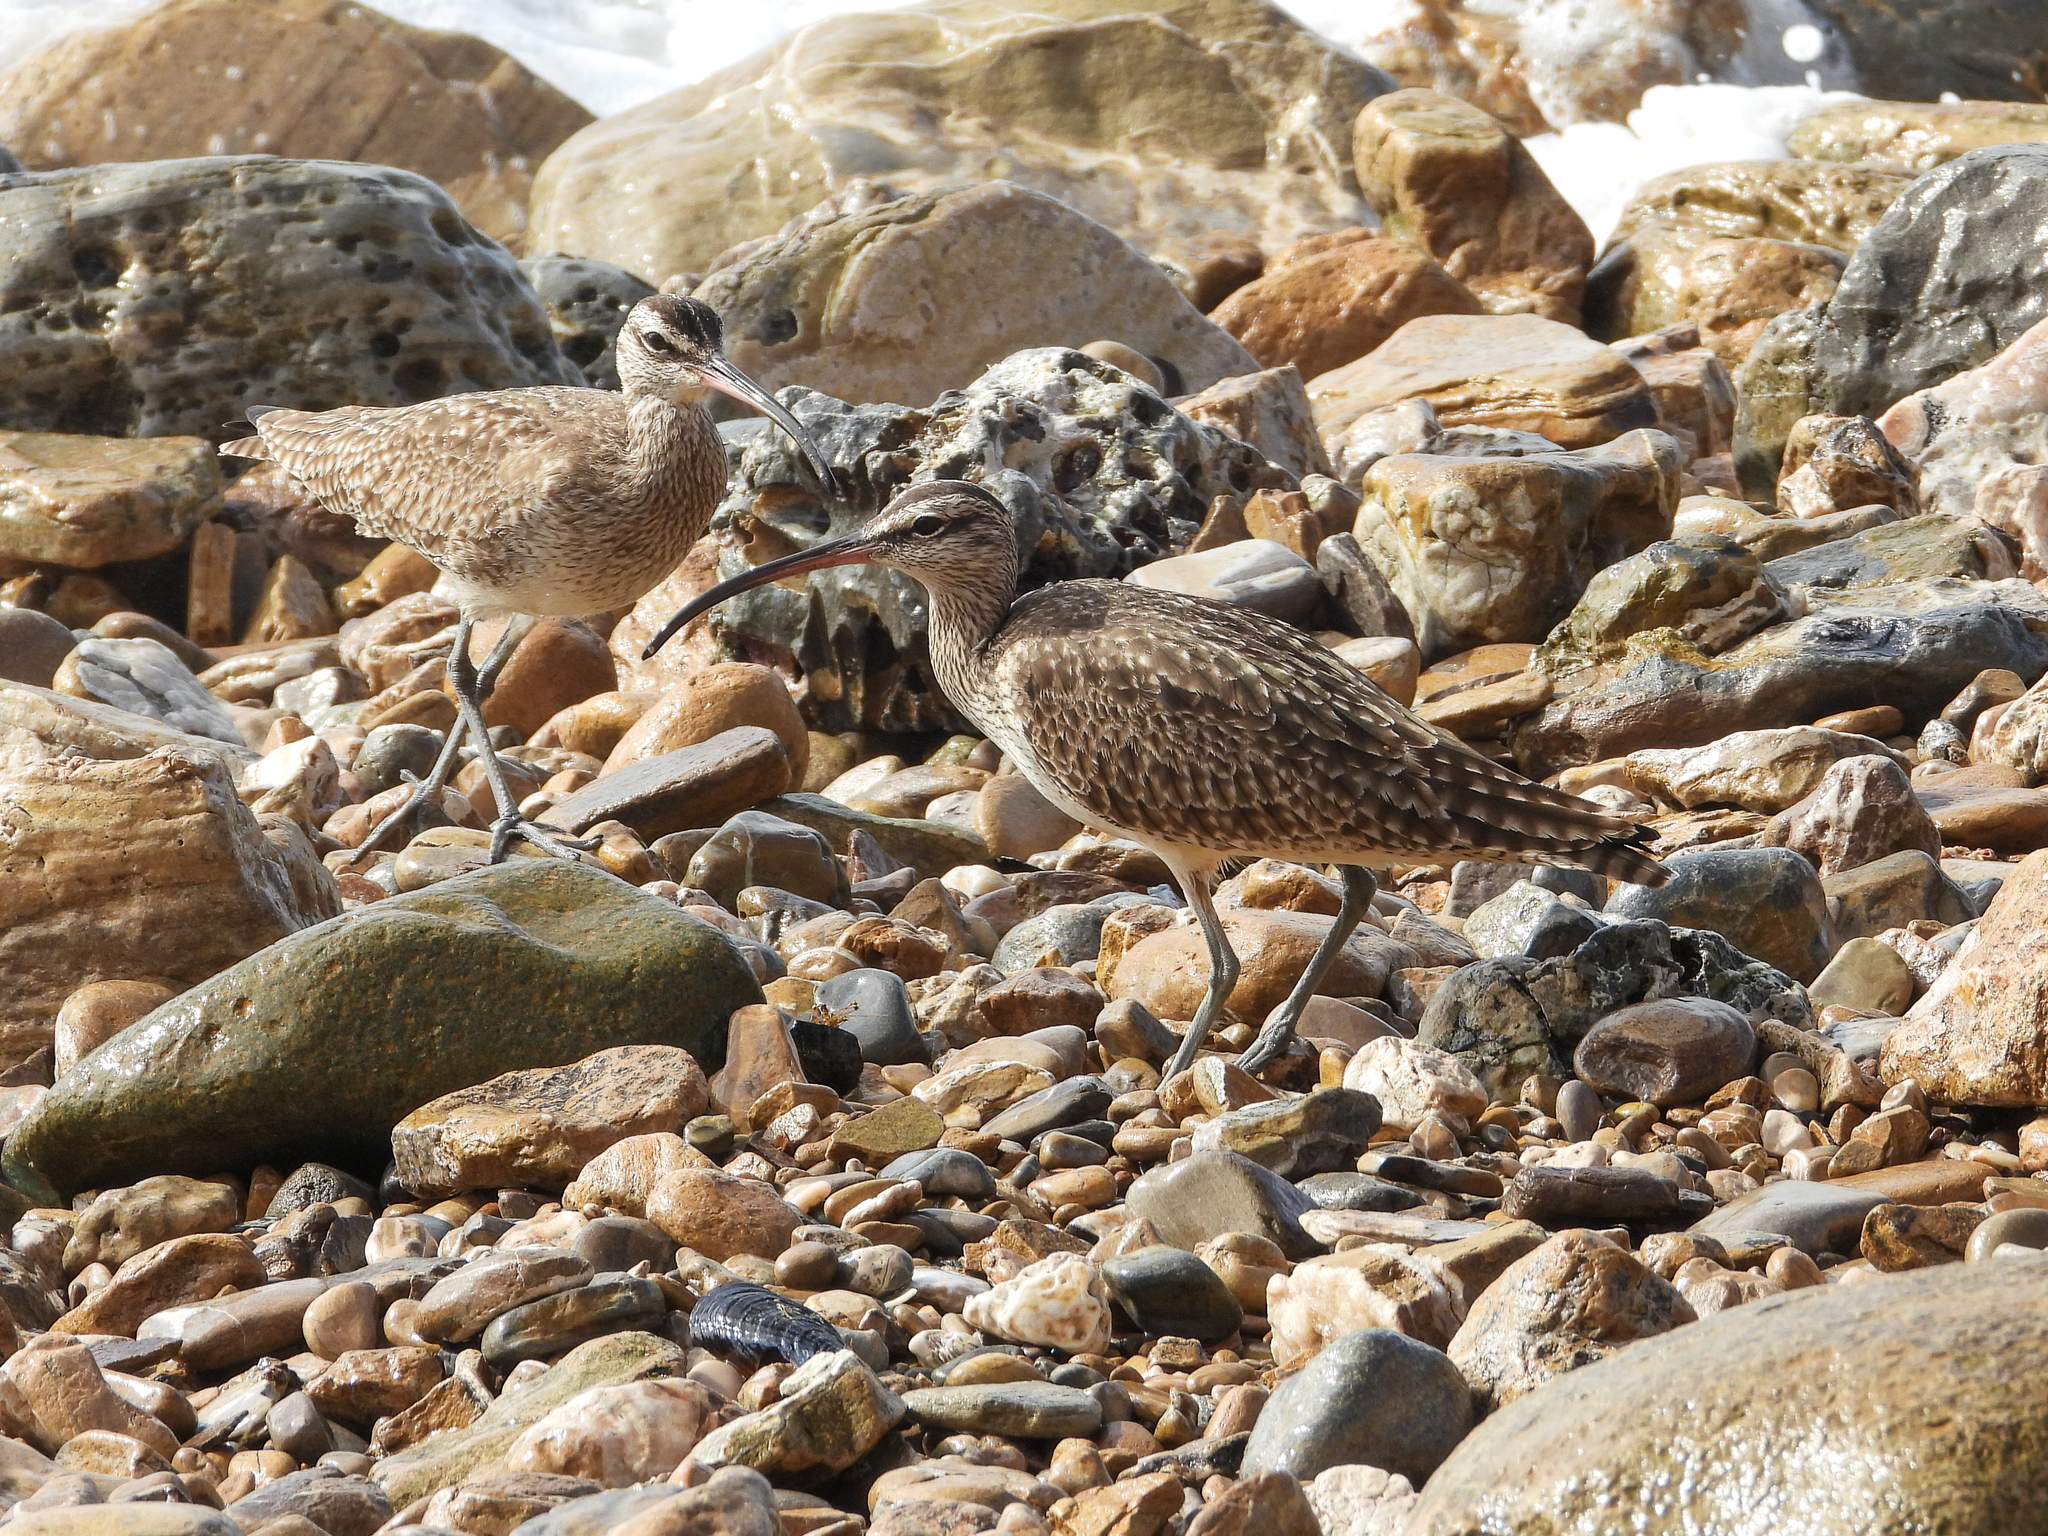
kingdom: Animalia
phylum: Chordata
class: Aves
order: Charadriiformes
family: Scolopacidae
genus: Numenius
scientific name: Numenius phaeopus
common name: Whimbrel
